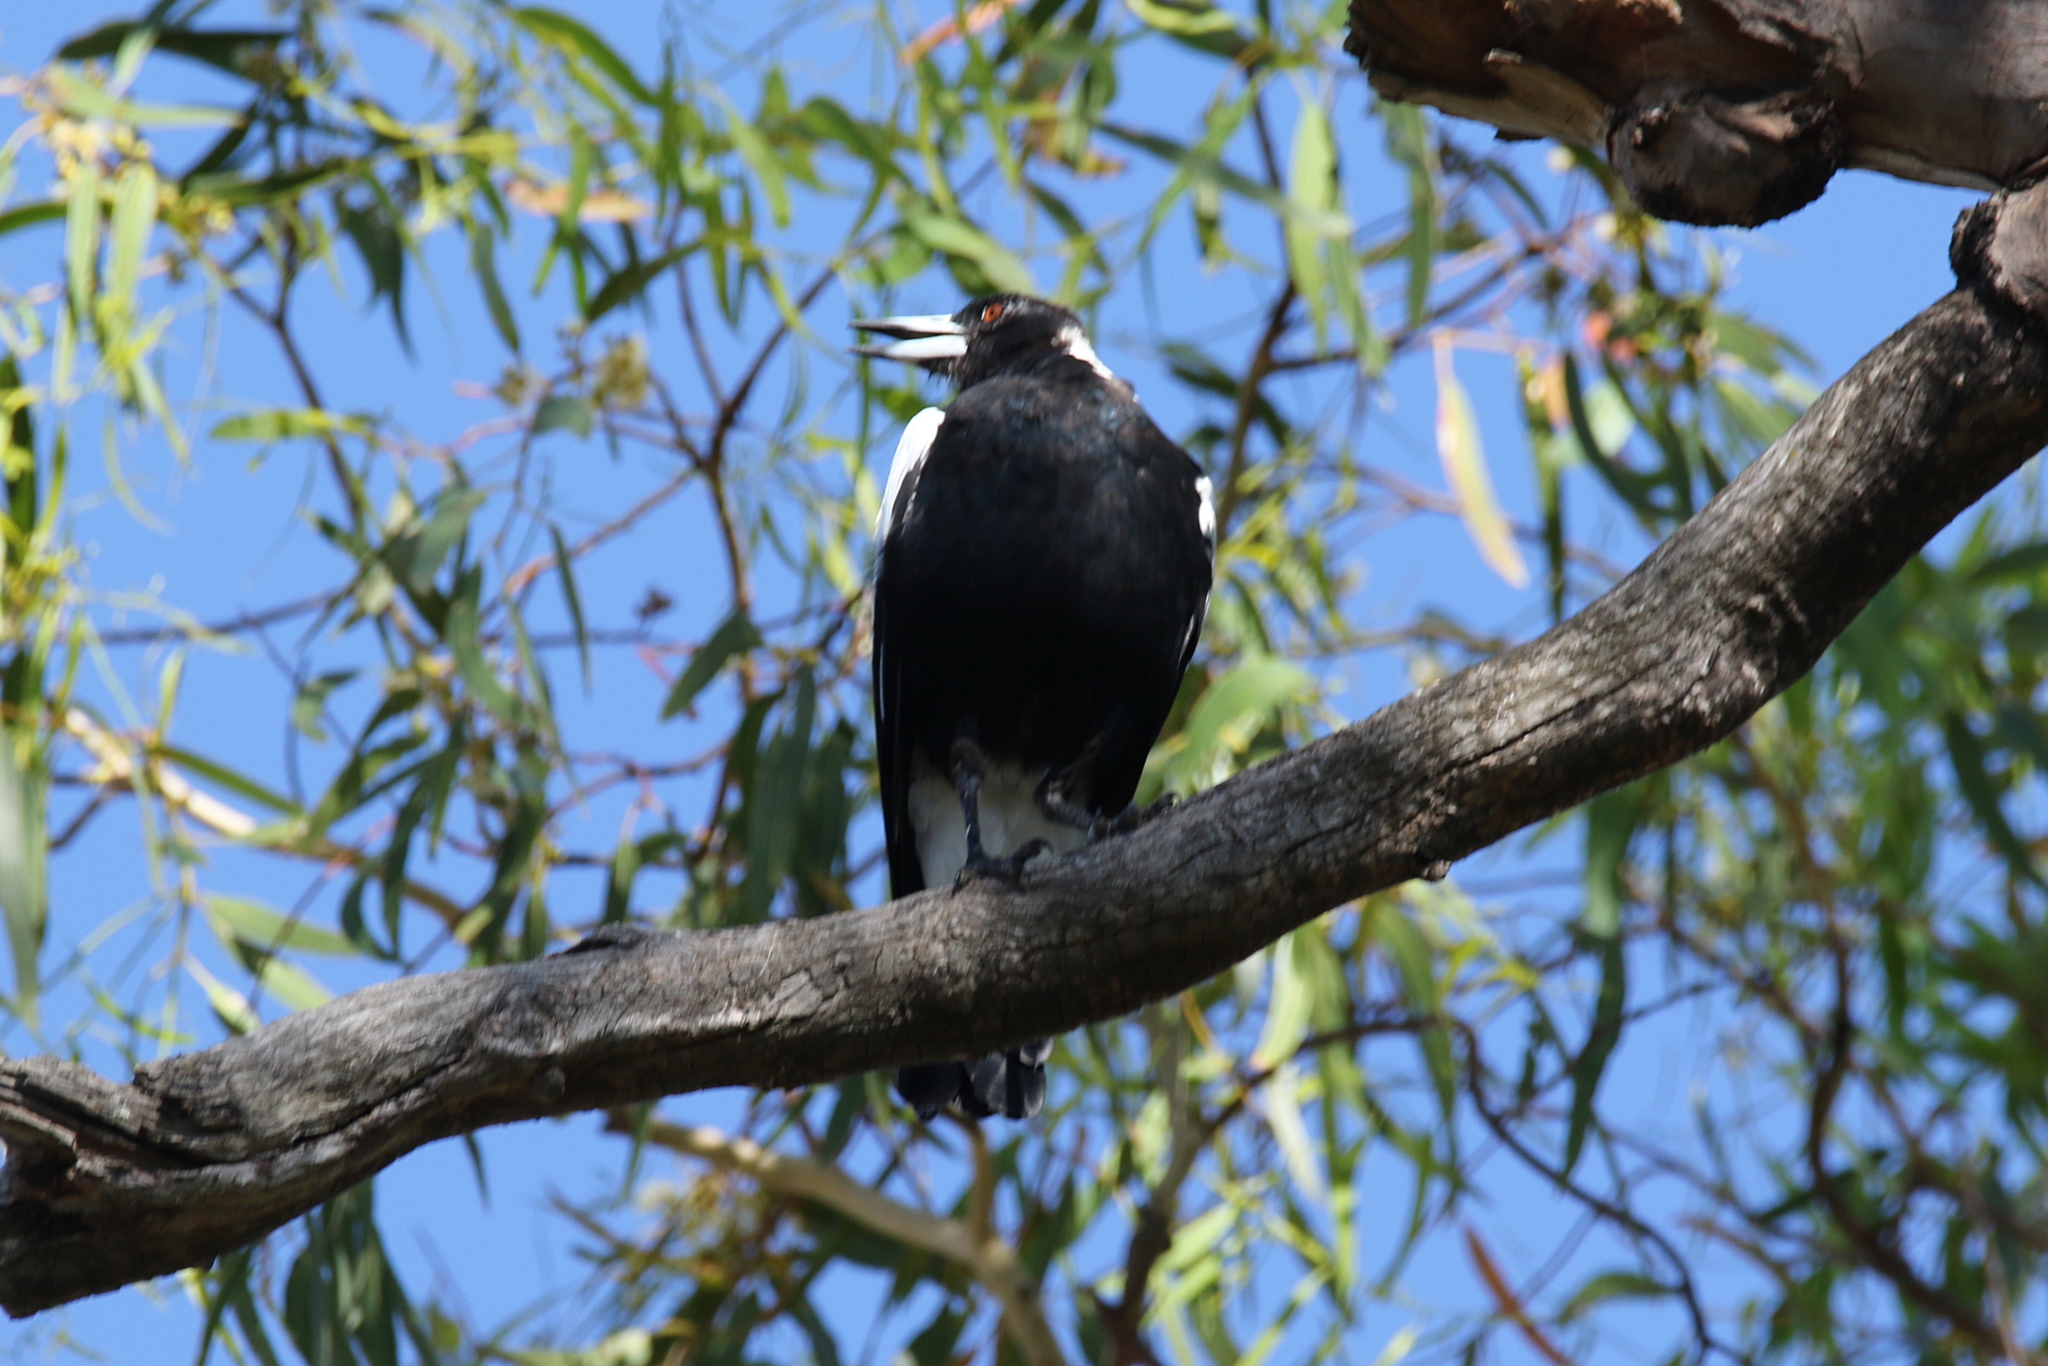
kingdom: Animalia
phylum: Chordata
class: Aves
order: Passeriformes
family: Cracticidae
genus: Gymnorhina
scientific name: Gymnorhina tibicen
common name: Australian magpie
